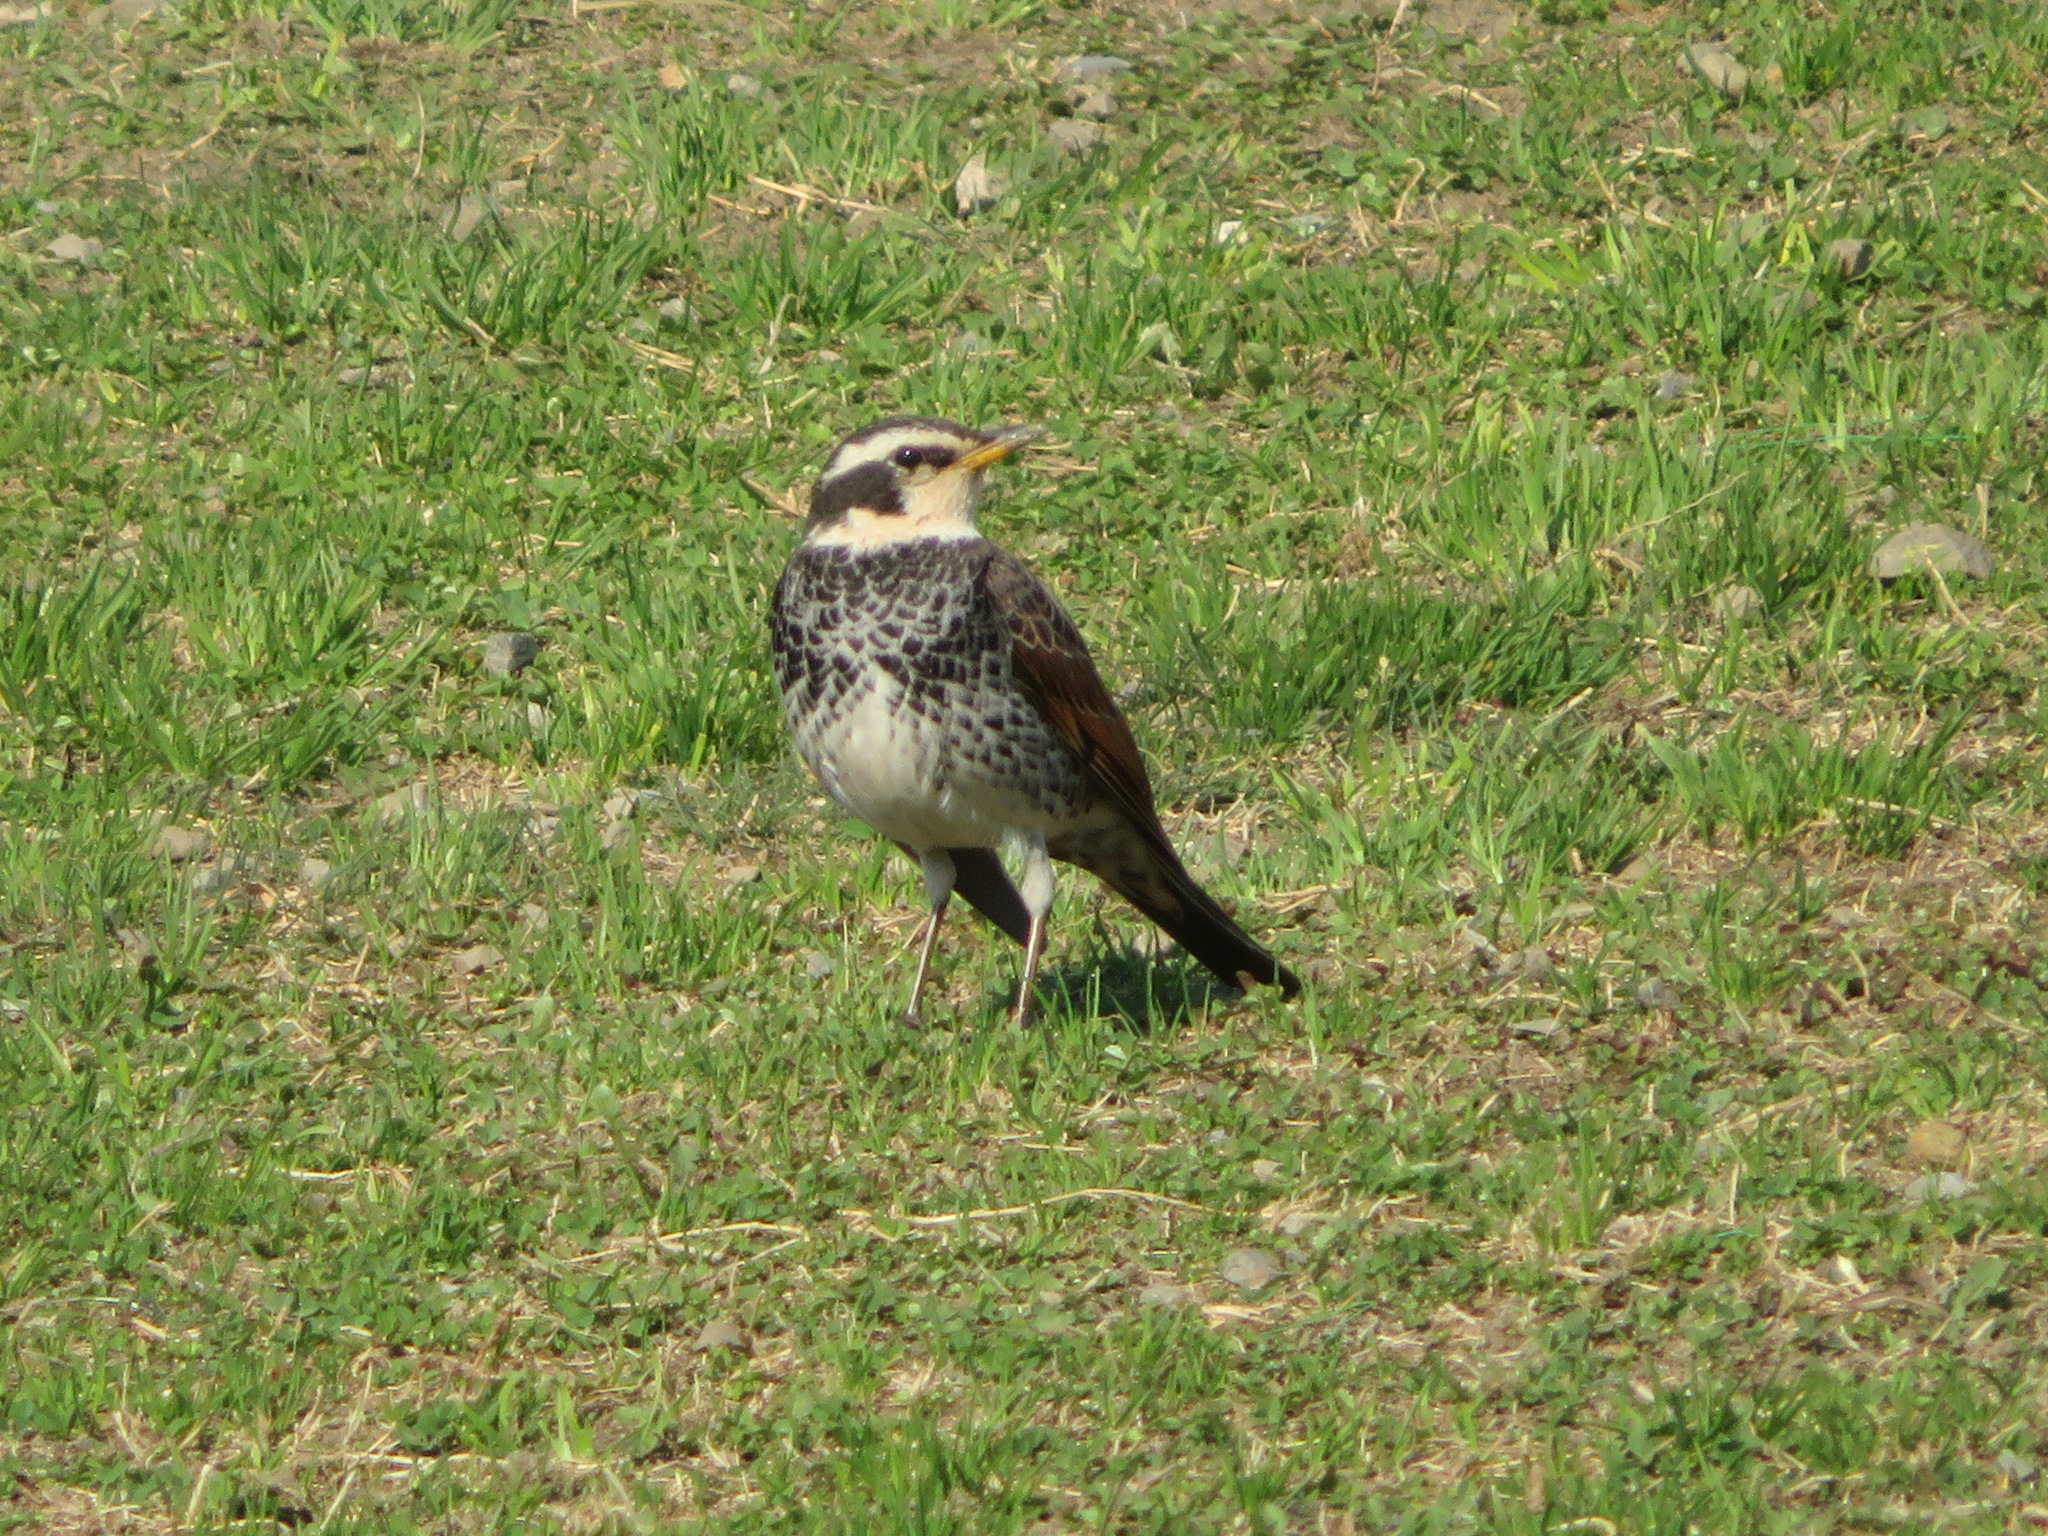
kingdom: Animalia
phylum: Chordata
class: Aves
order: Passeriformes
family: Turdidae
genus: Turdus
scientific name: Turdus eunomus
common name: Dusky thrush
